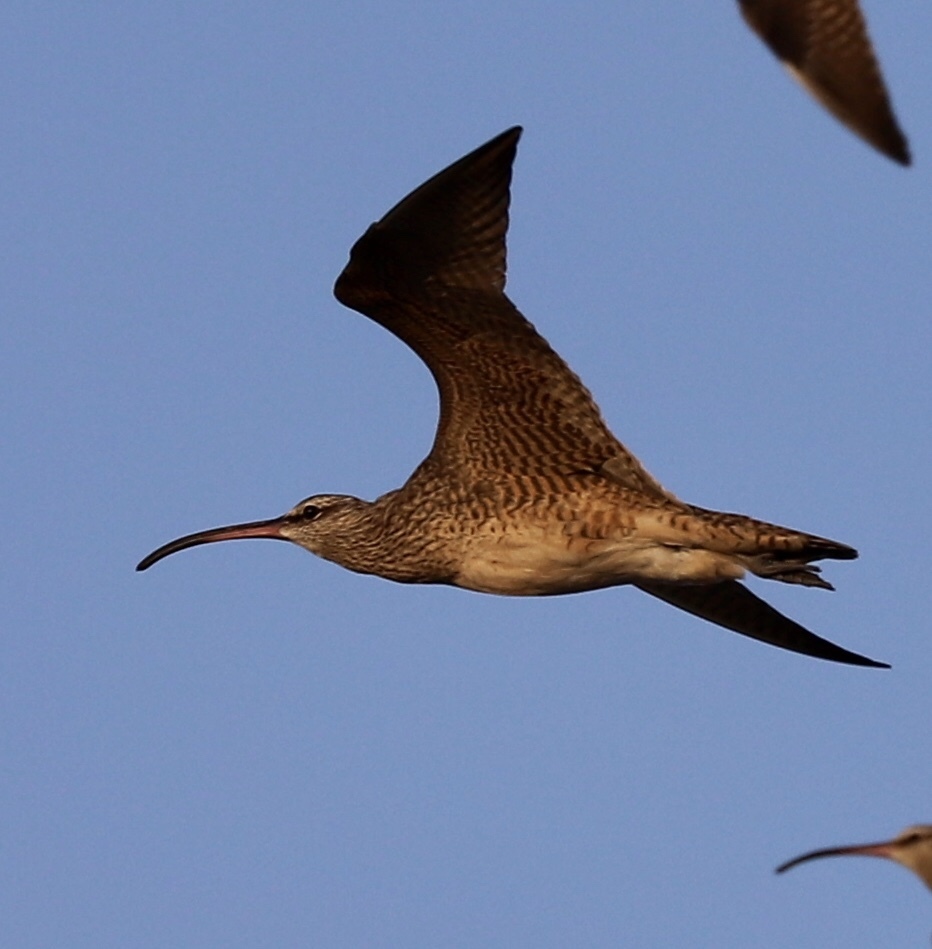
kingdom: Animalia
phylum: Chordata
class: Aves
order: Charadriiformes
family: Scolopacidae
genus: Numenius
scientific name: Numenius phaeopus
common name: Whimbrel
